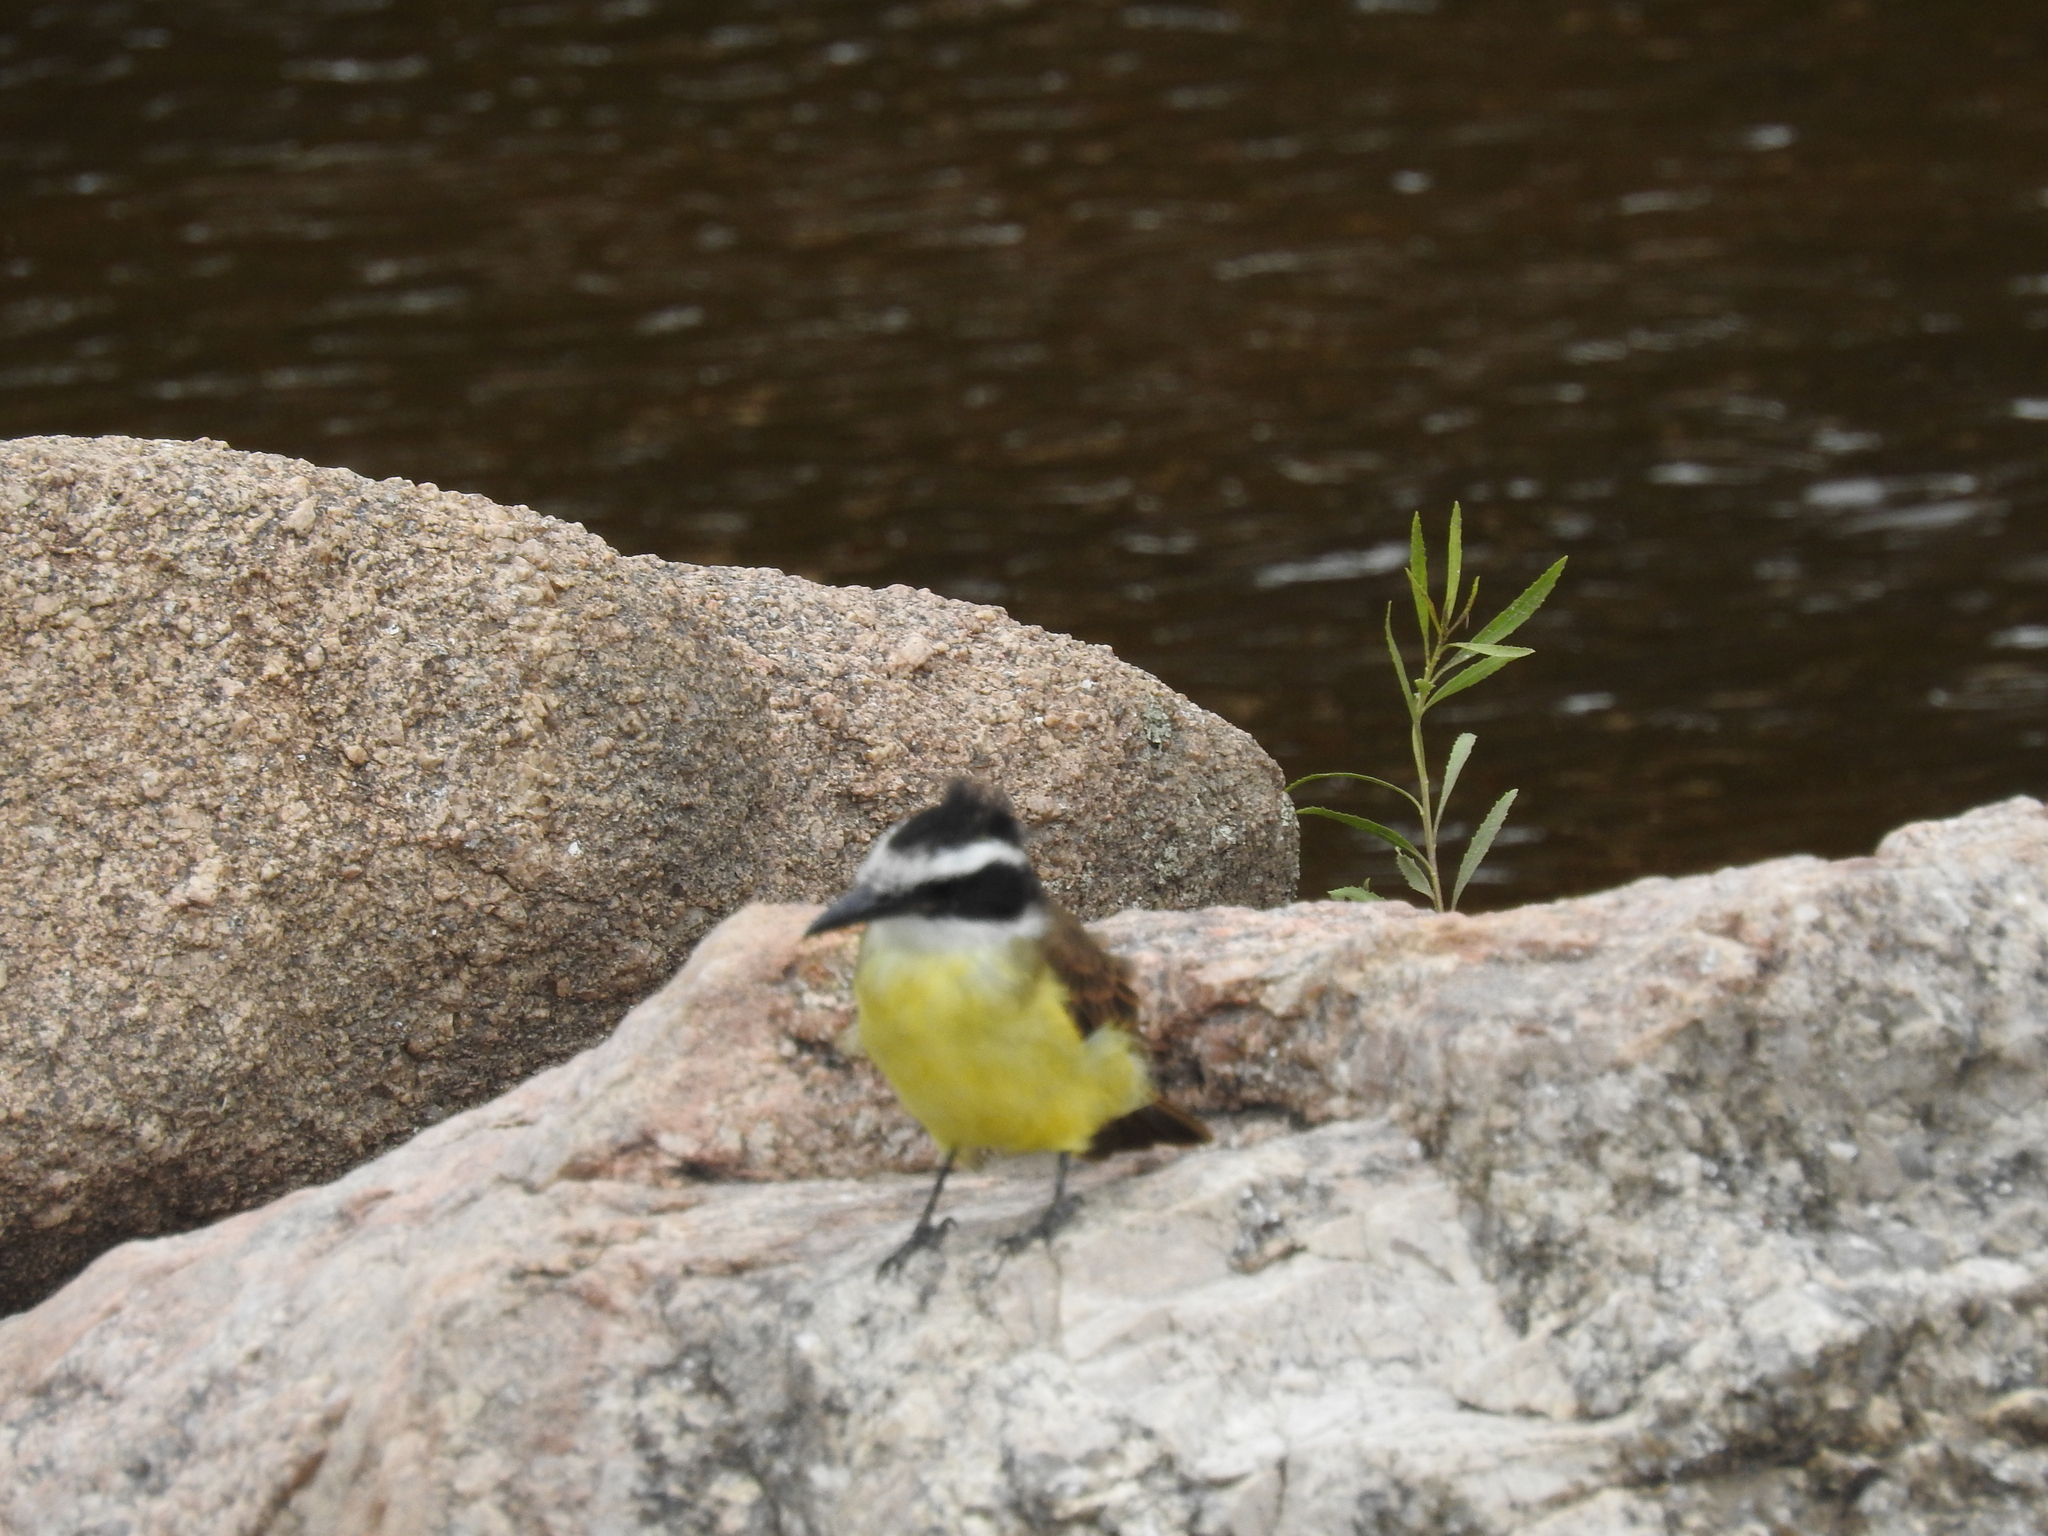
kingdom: Animalia
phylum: Chordata
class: Aves
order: Passeriformes
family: Tyrannidae
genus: Pitangus
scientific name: Pitangus sulphuratus
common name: Great kiskadee
